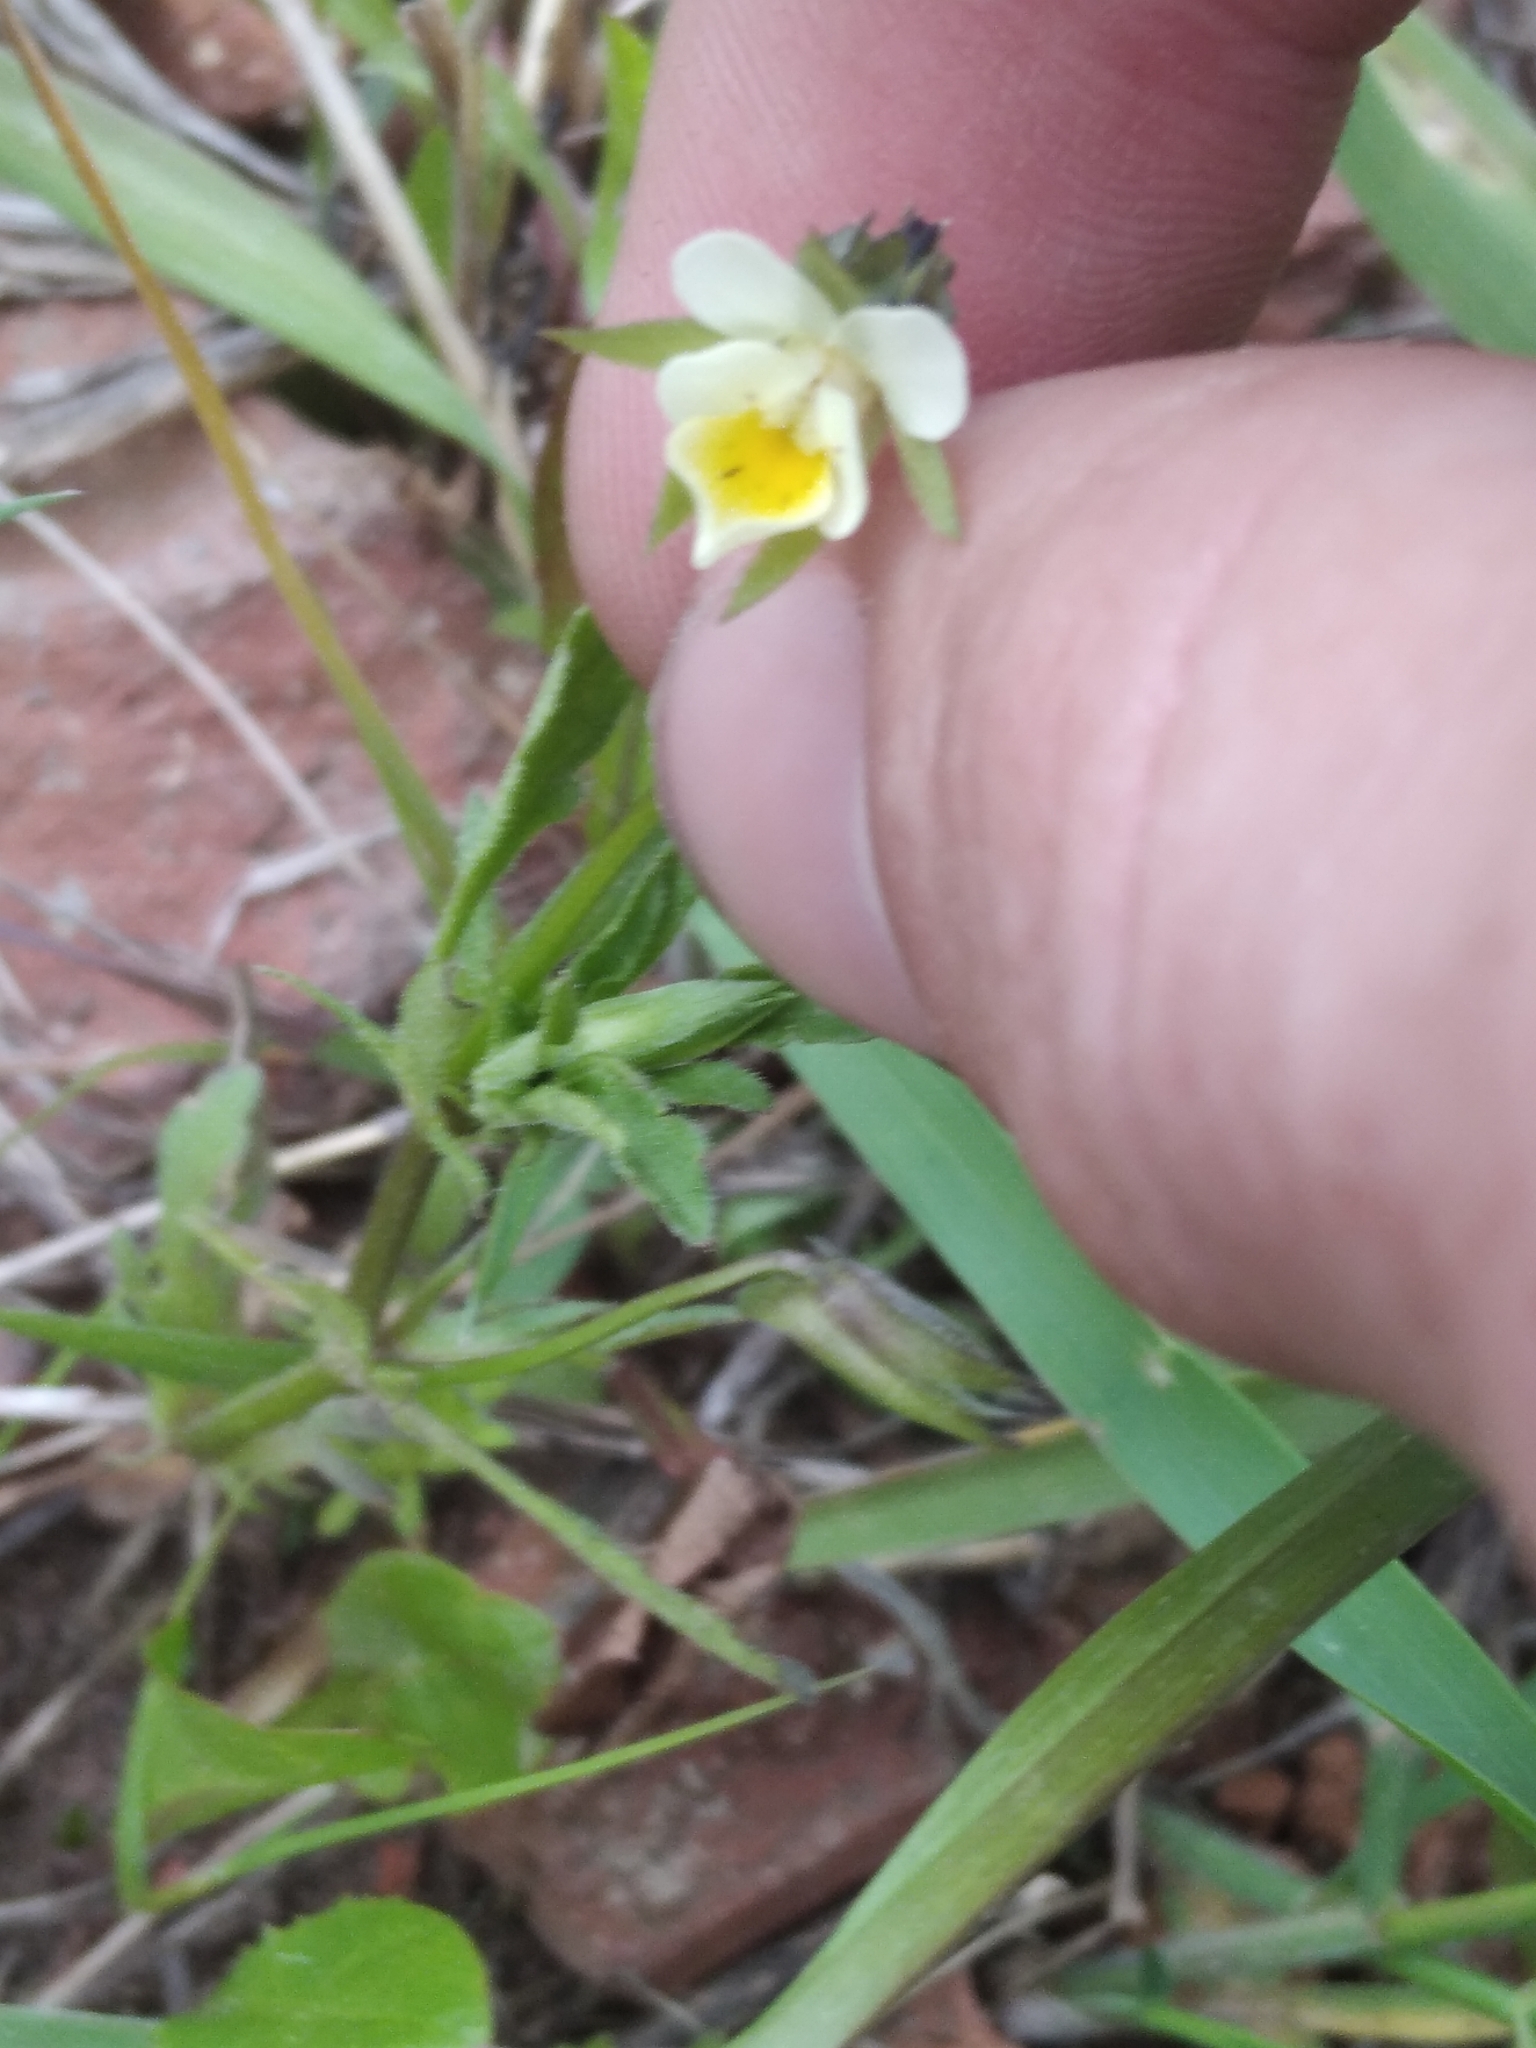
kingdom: Plantae
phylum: Tracheophyta
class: Magnoliopsida
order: Malpighiales
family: Violaceae
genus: Viola
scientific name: Viola arvensis
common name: Field pansy
